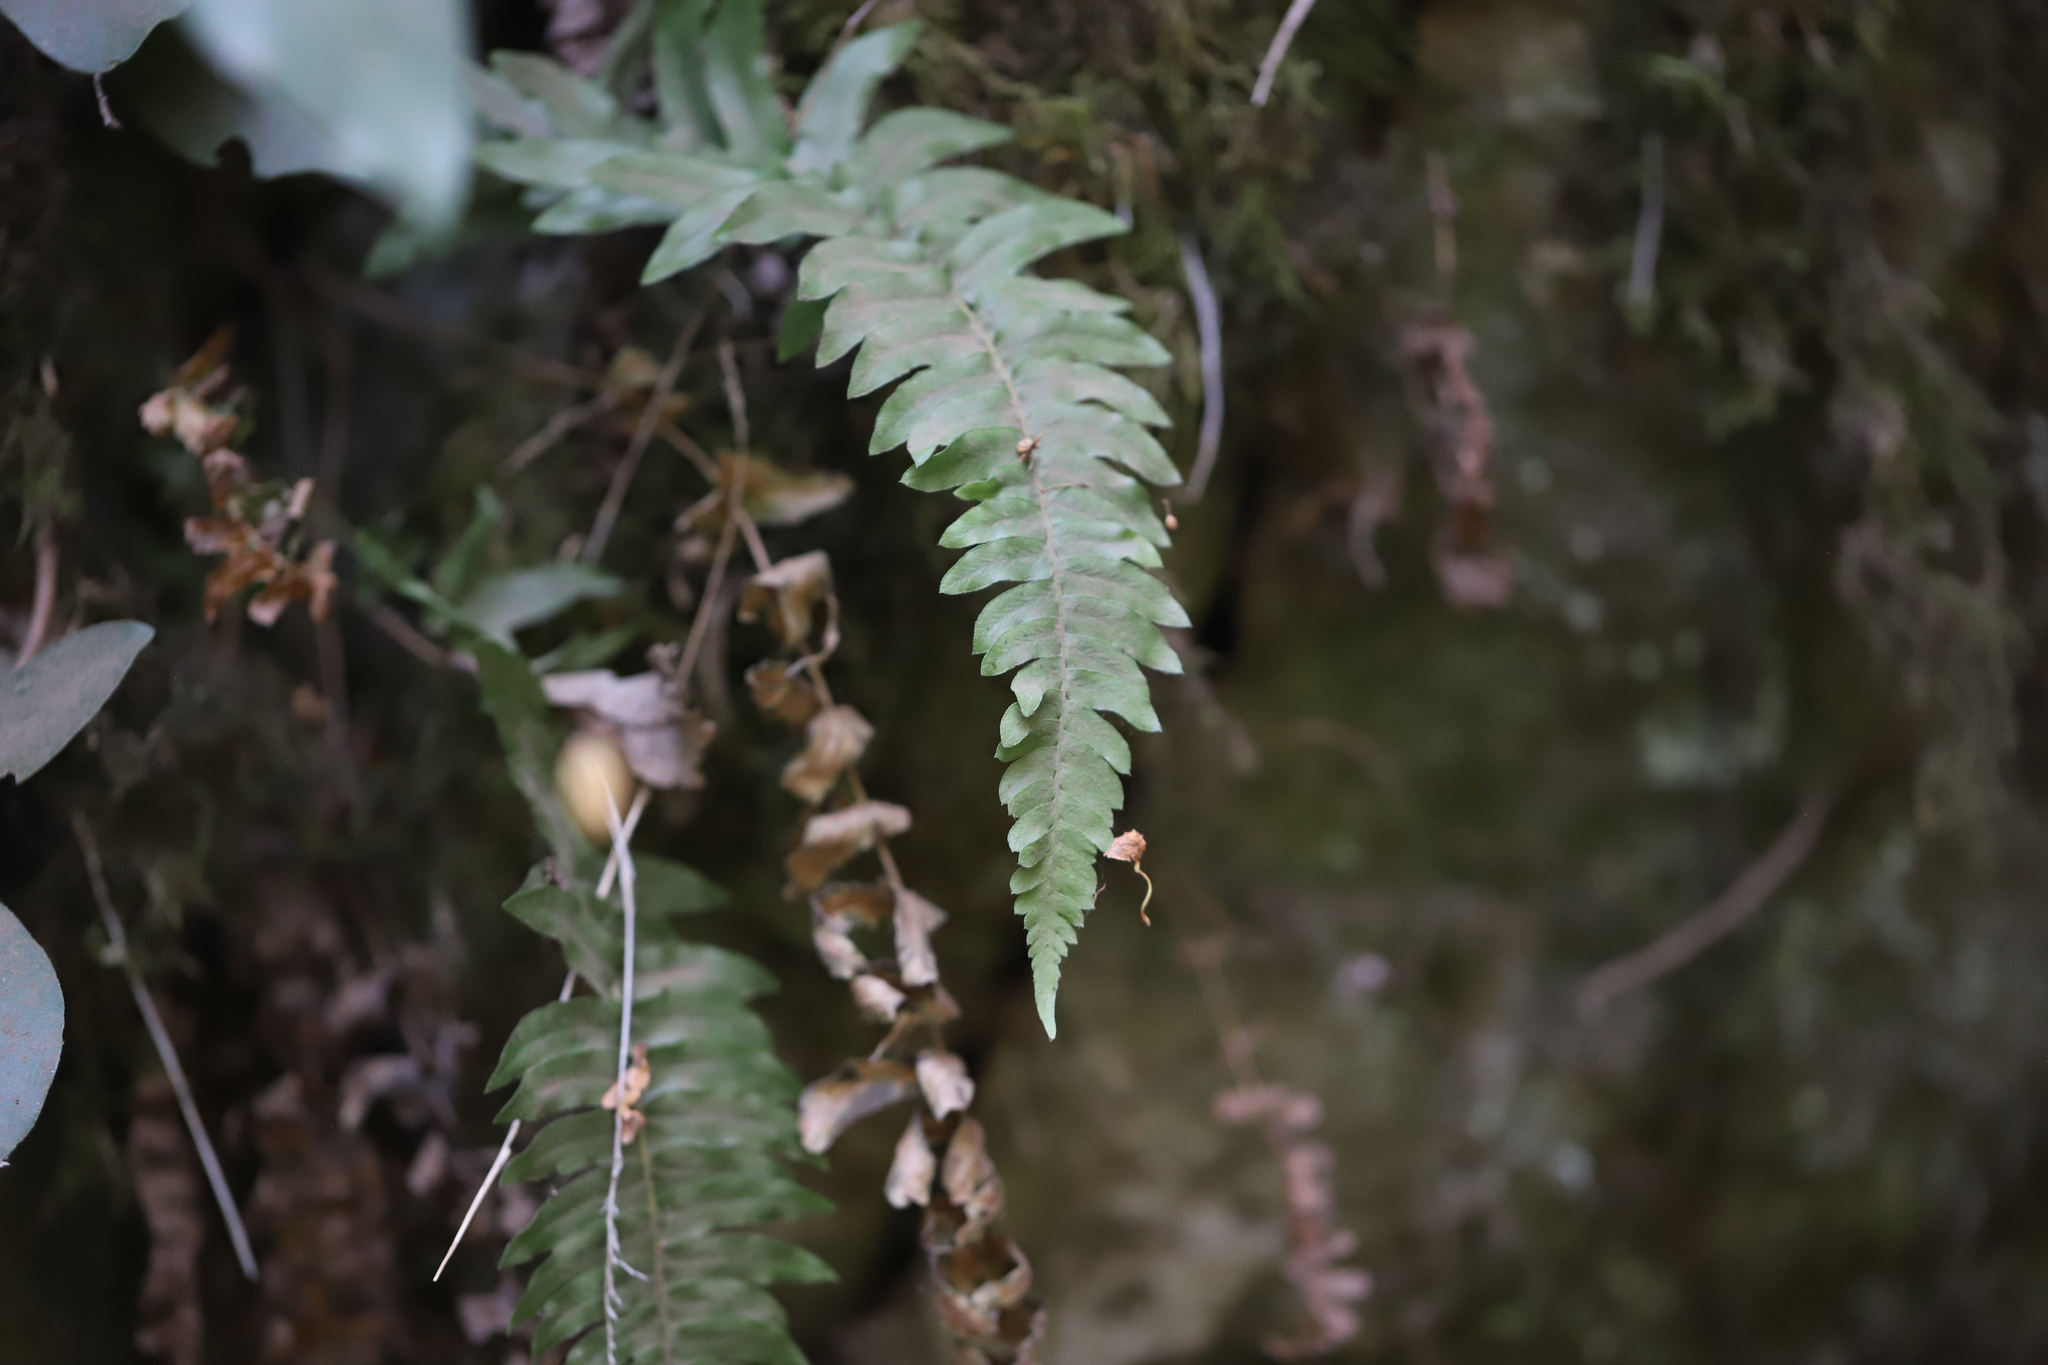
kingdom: Plantae
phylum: Tracheophyta
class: Polypodiopsida
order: Polypodiales
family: Blechnaceae
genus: Blechnum
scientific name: Blechnum hastatum
